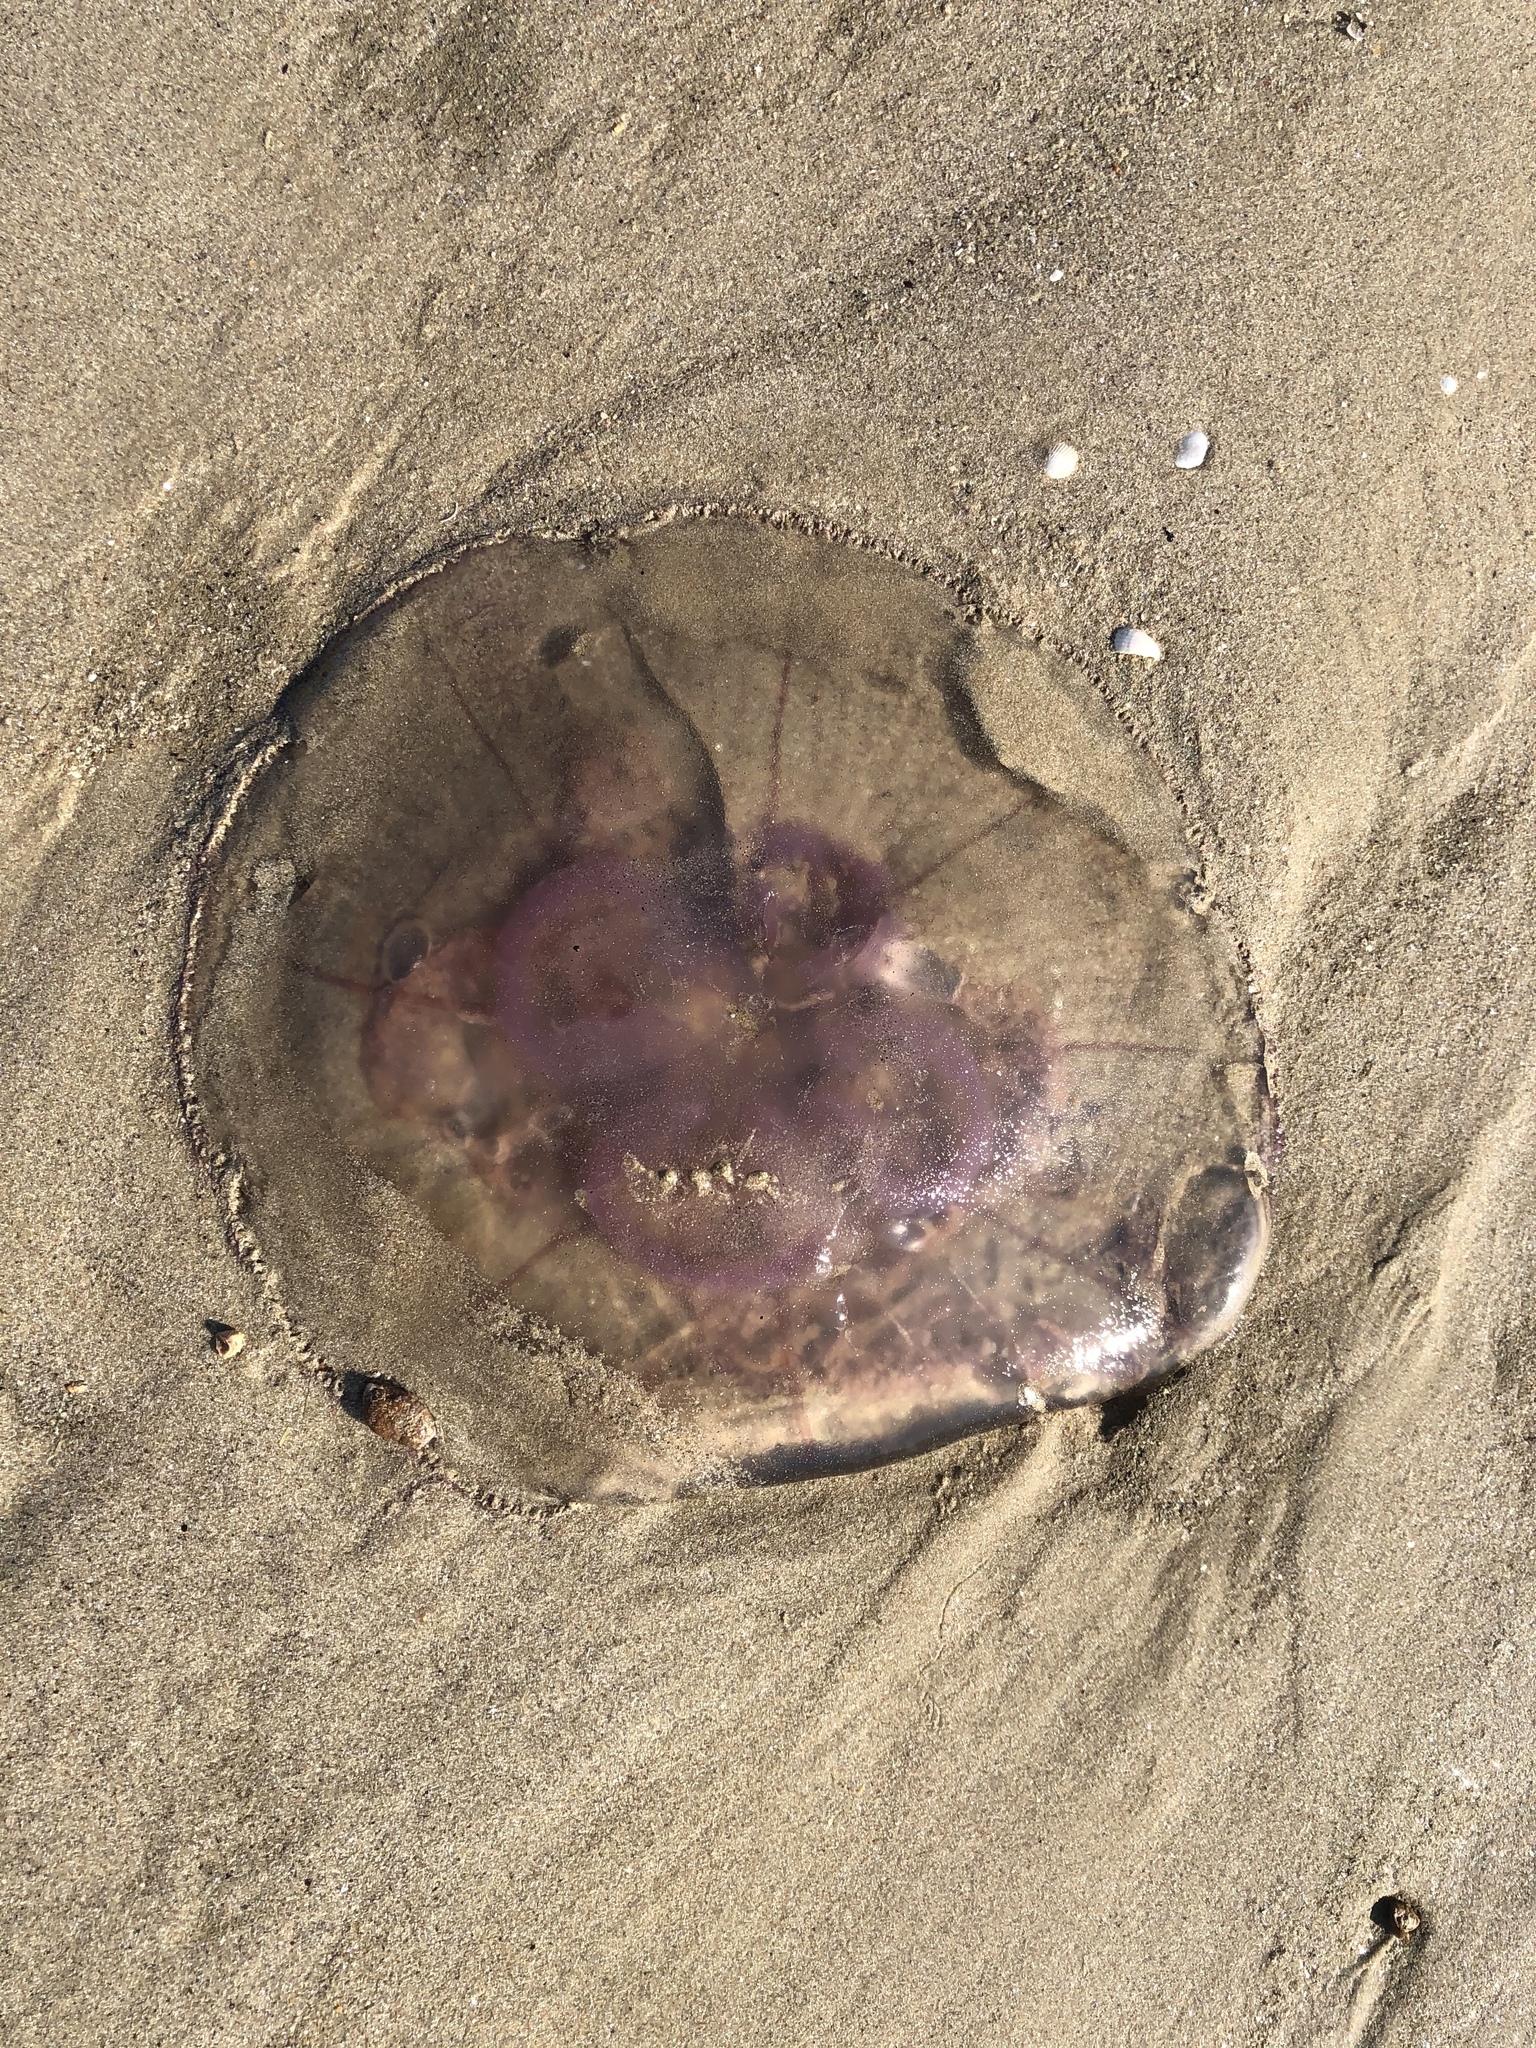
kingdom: Animalia
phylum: Cnidaria
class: Scyphozoa
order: Semaeostomeae
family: Ulmaridae
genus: Aurelia
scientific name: Aurelia aurita
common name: Moon jellyfish
